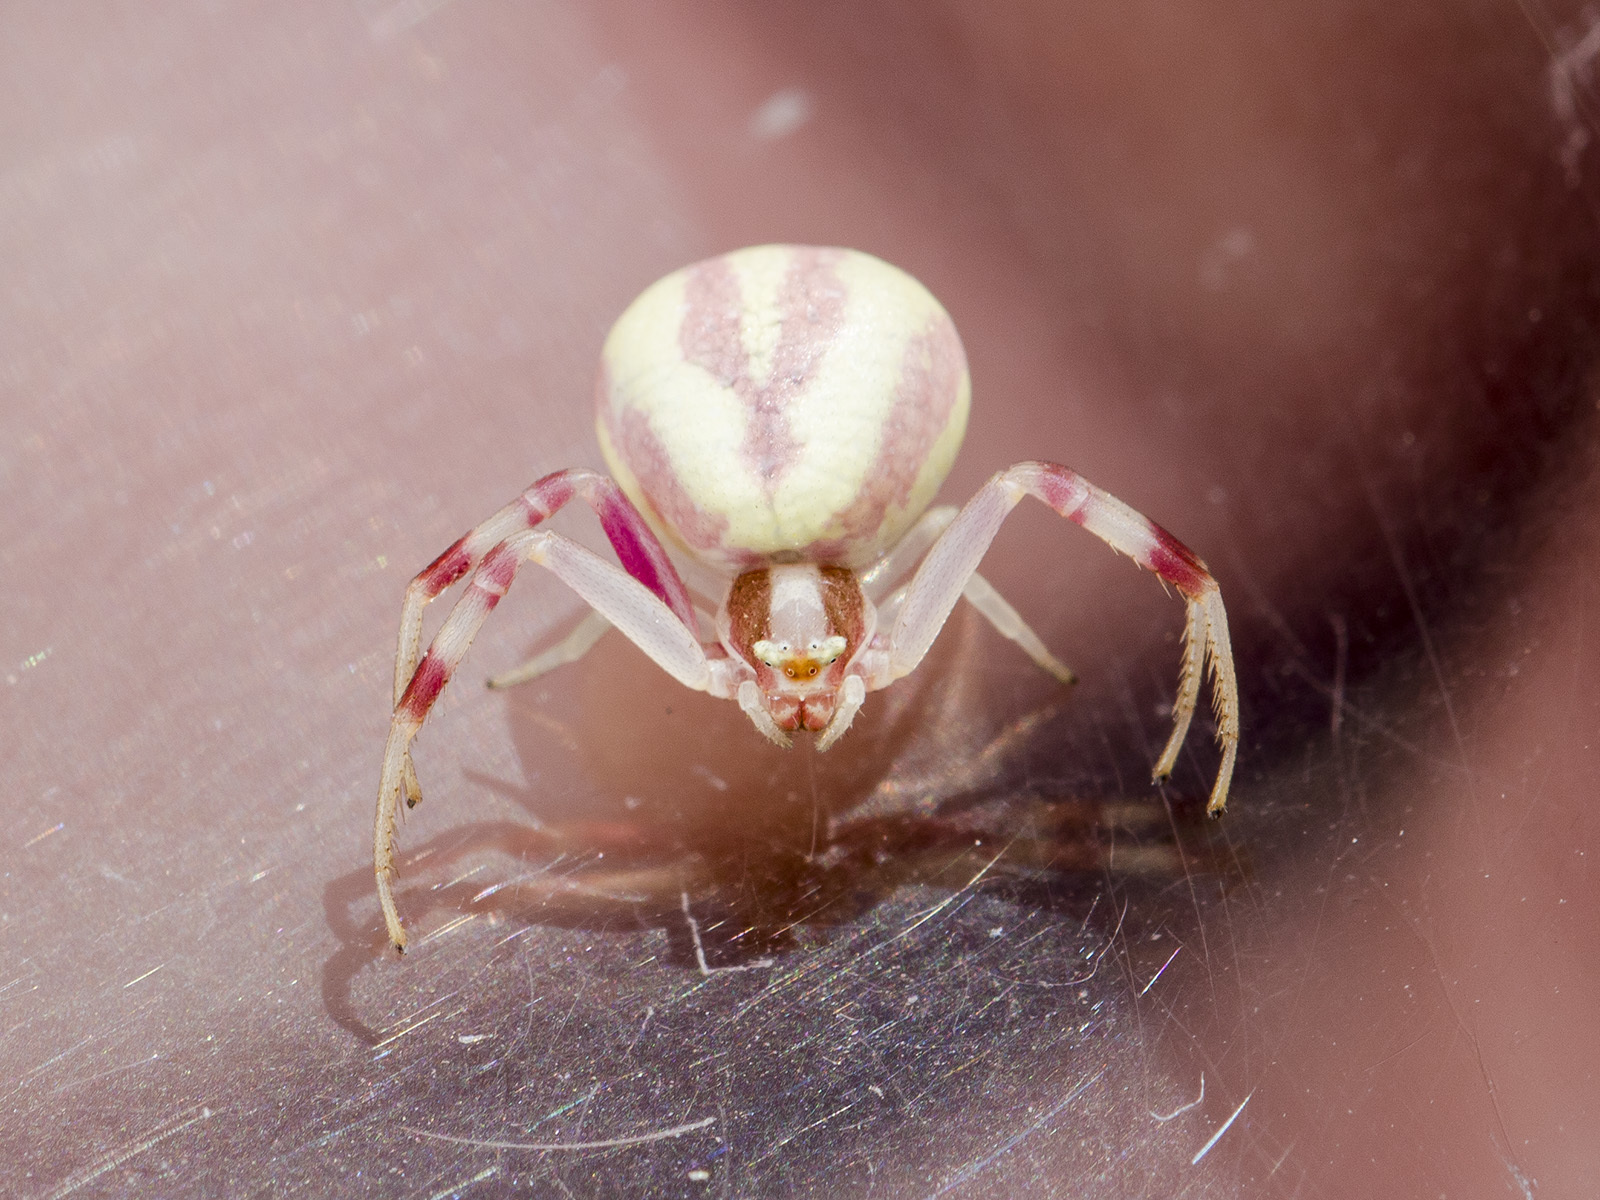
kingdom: Animalia
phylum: Arthropoda
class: Arachnida
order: Araneae
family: Thomisidae
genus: Misumena
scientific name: Misumena vatia
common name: Goldenrod crab spider
